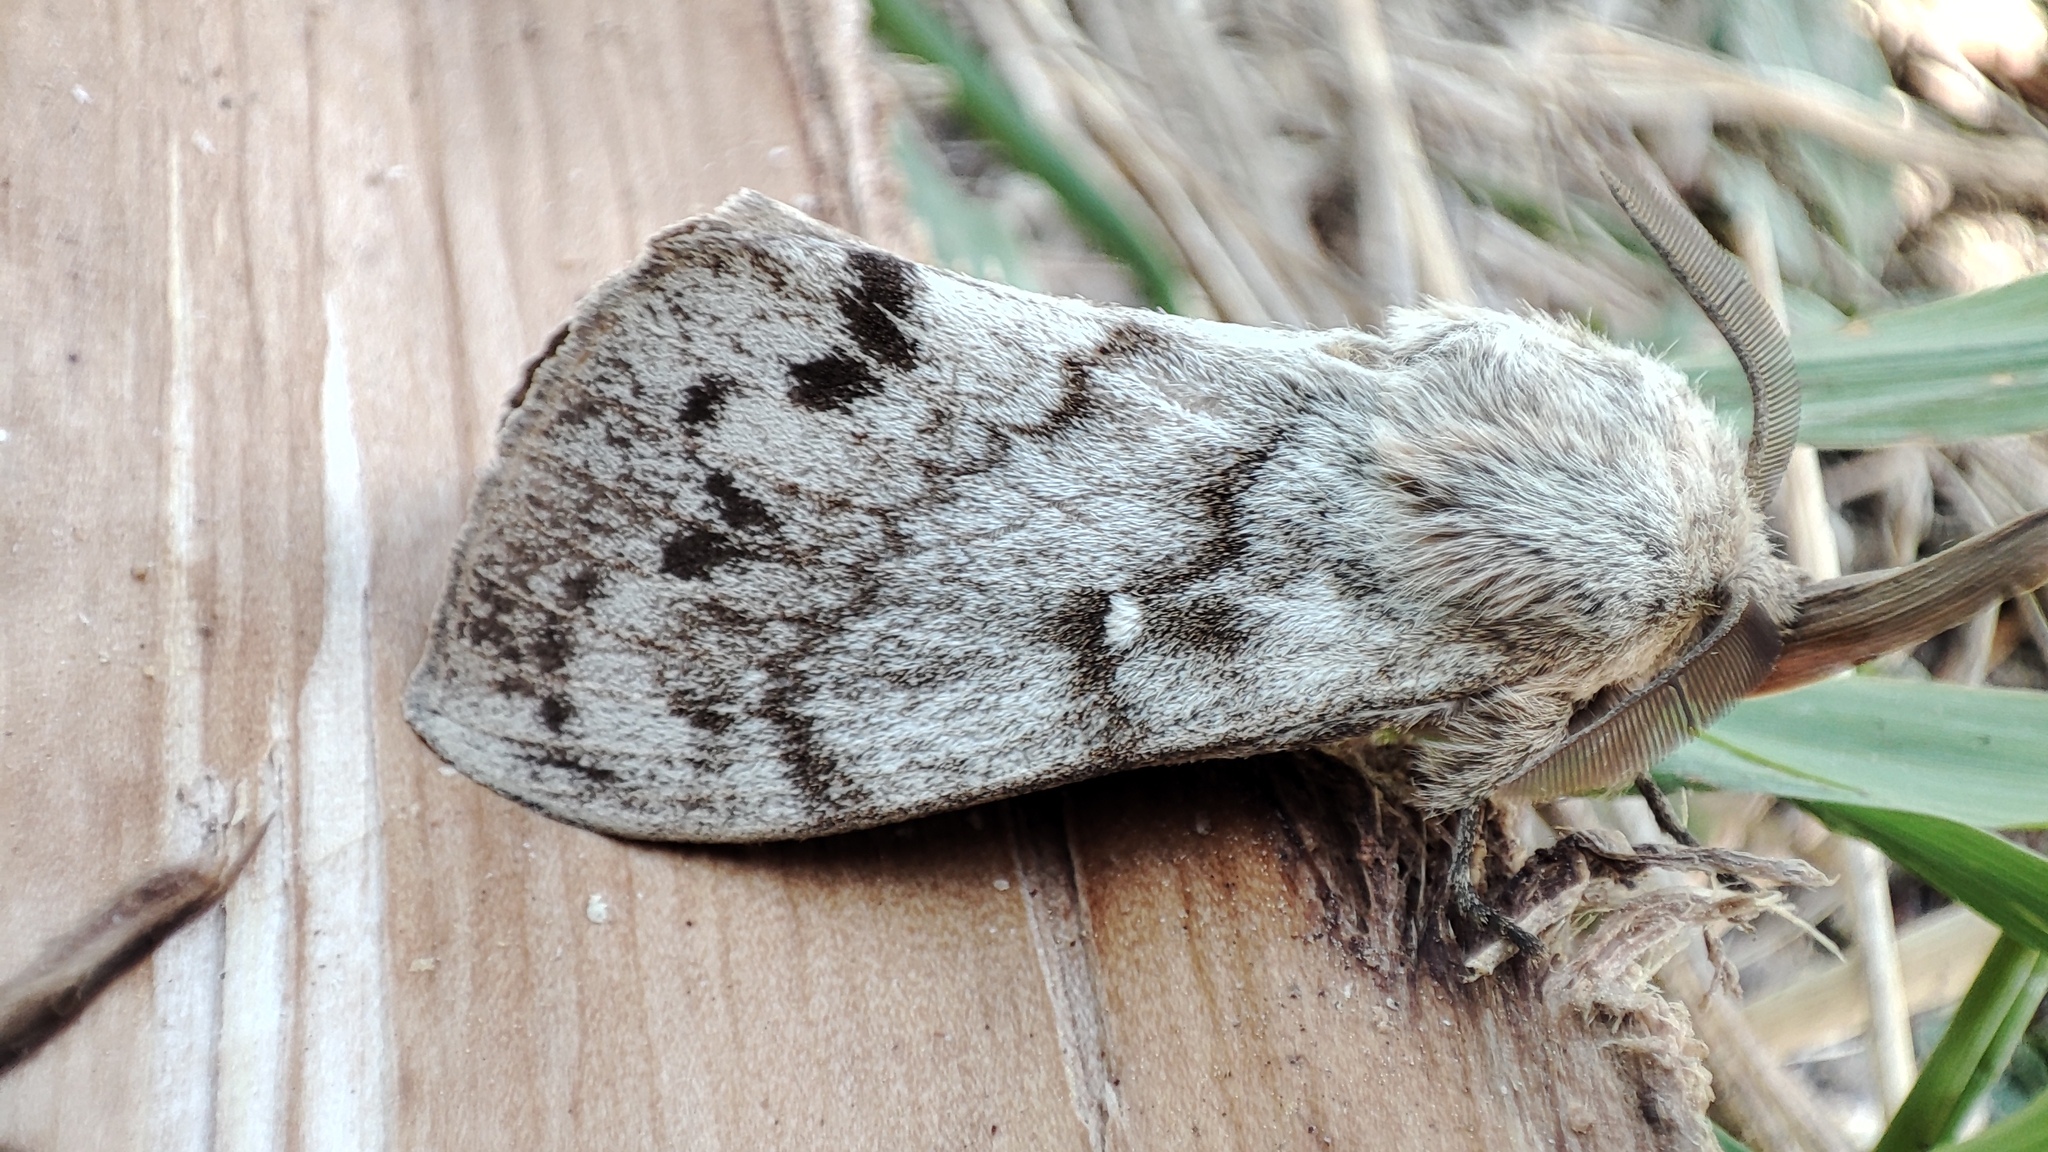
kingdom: Animalia
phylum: Arthropoda
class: Insecta
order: Lepidoptera
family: Lasiocampidae
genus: Dendrolimus
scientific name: Dendrolimus sibiricus
